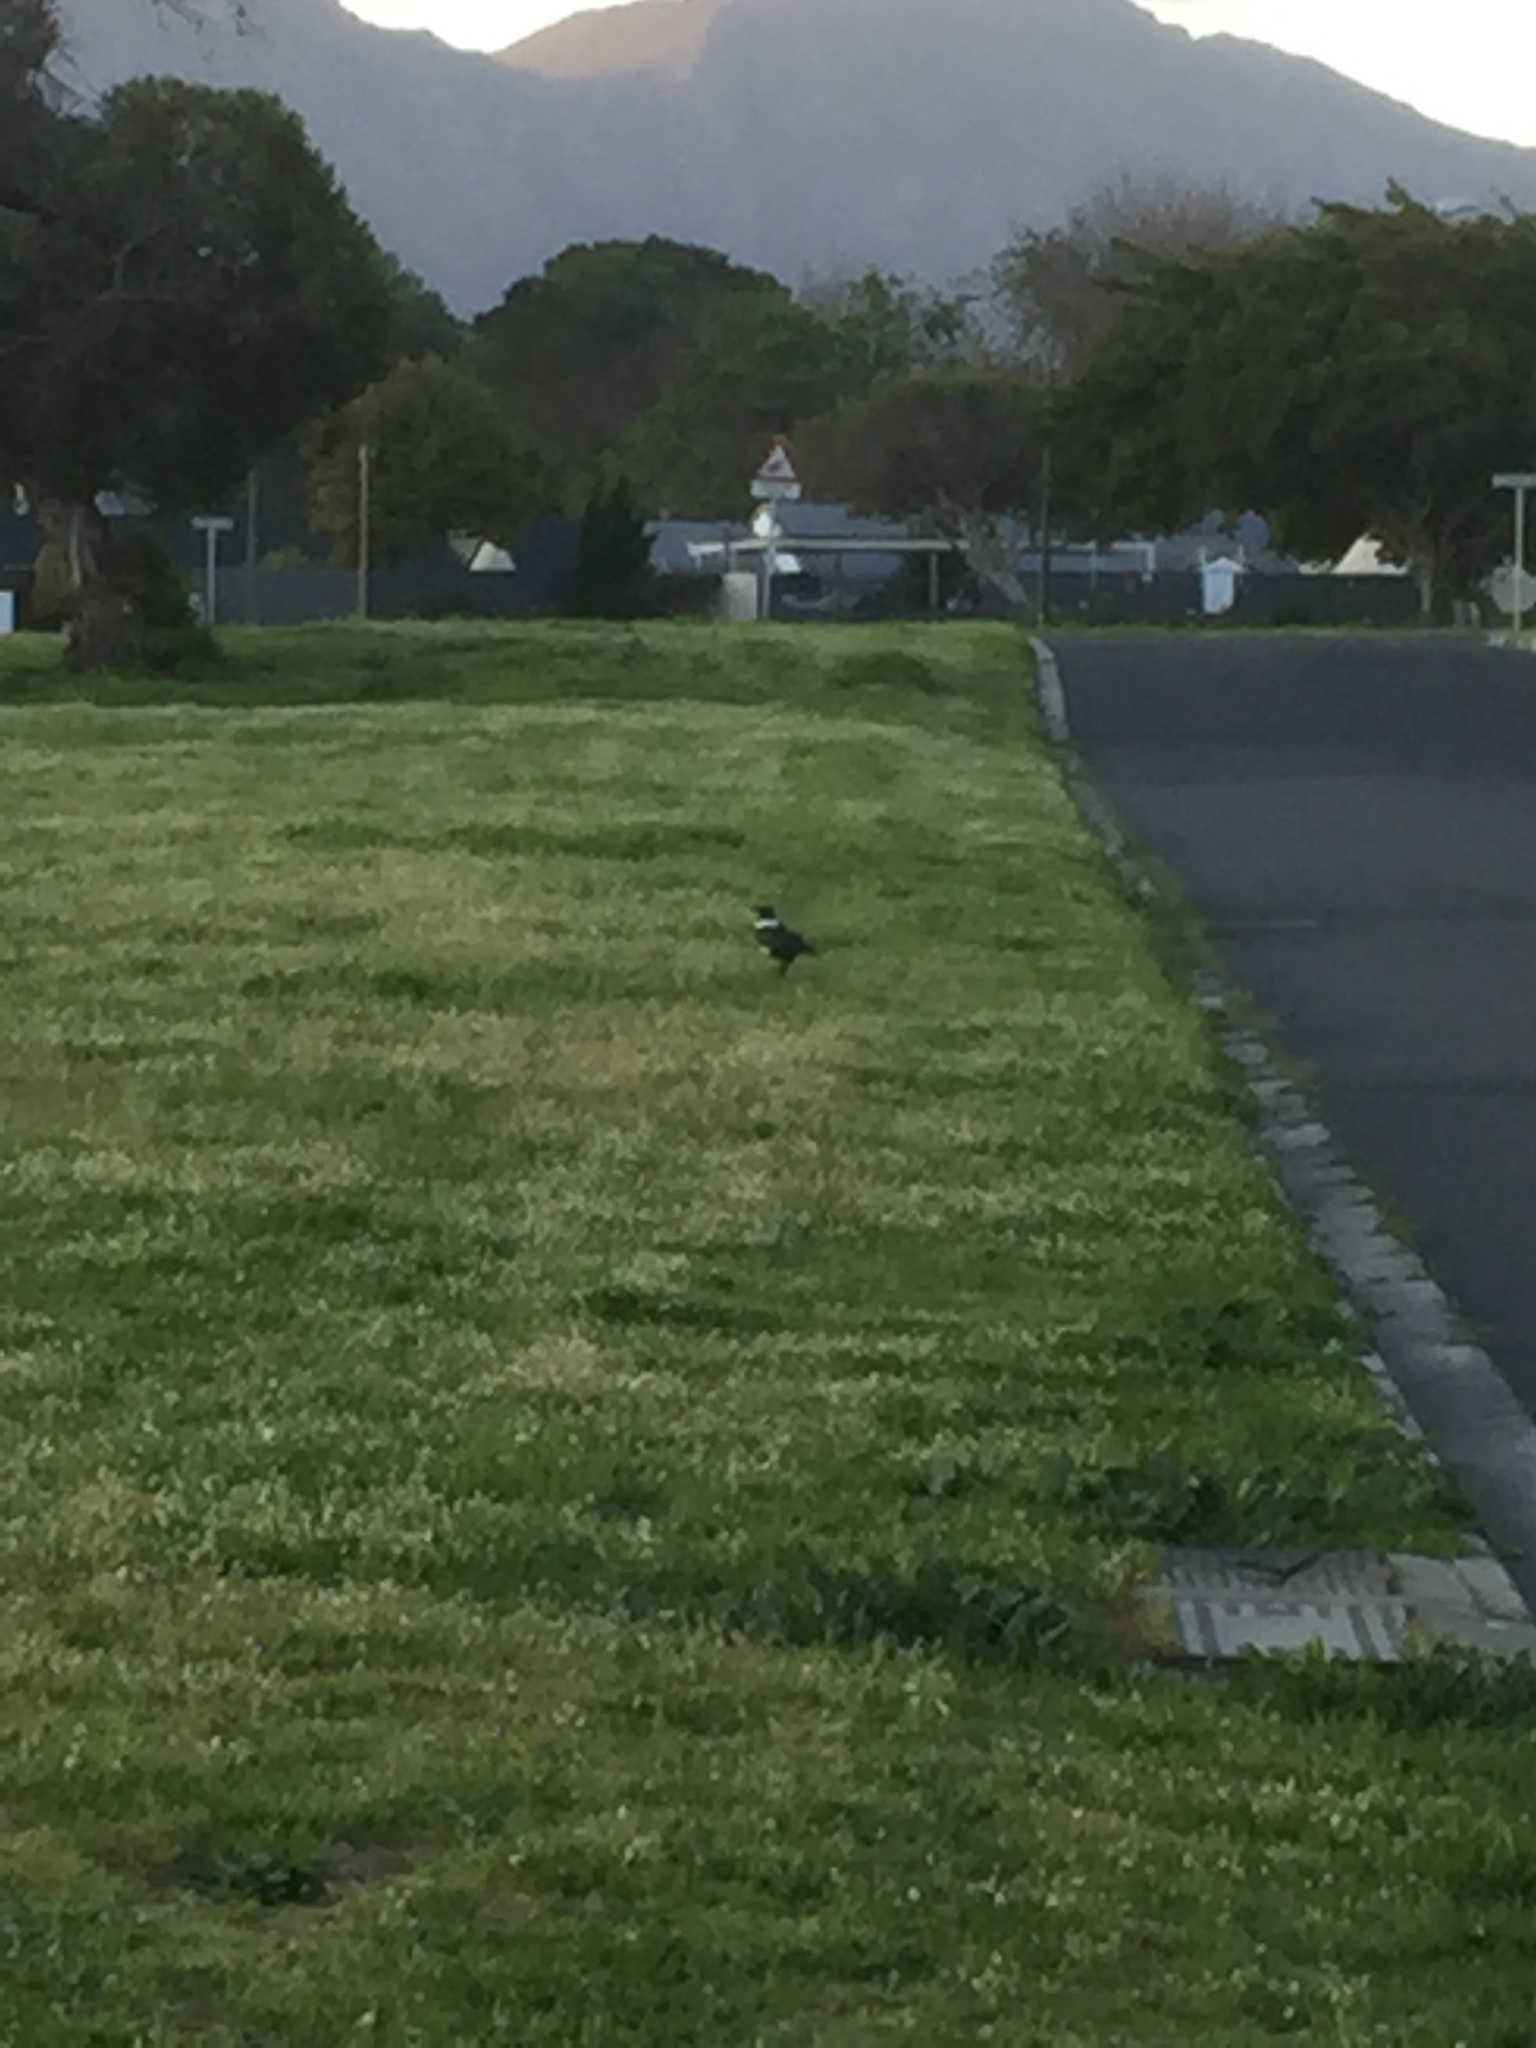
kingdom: Animalia
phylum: Chordata
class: Aves
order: Passeriformes
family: Corvidae
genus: Corvus
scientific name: Corvus albus
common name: Pied crow
